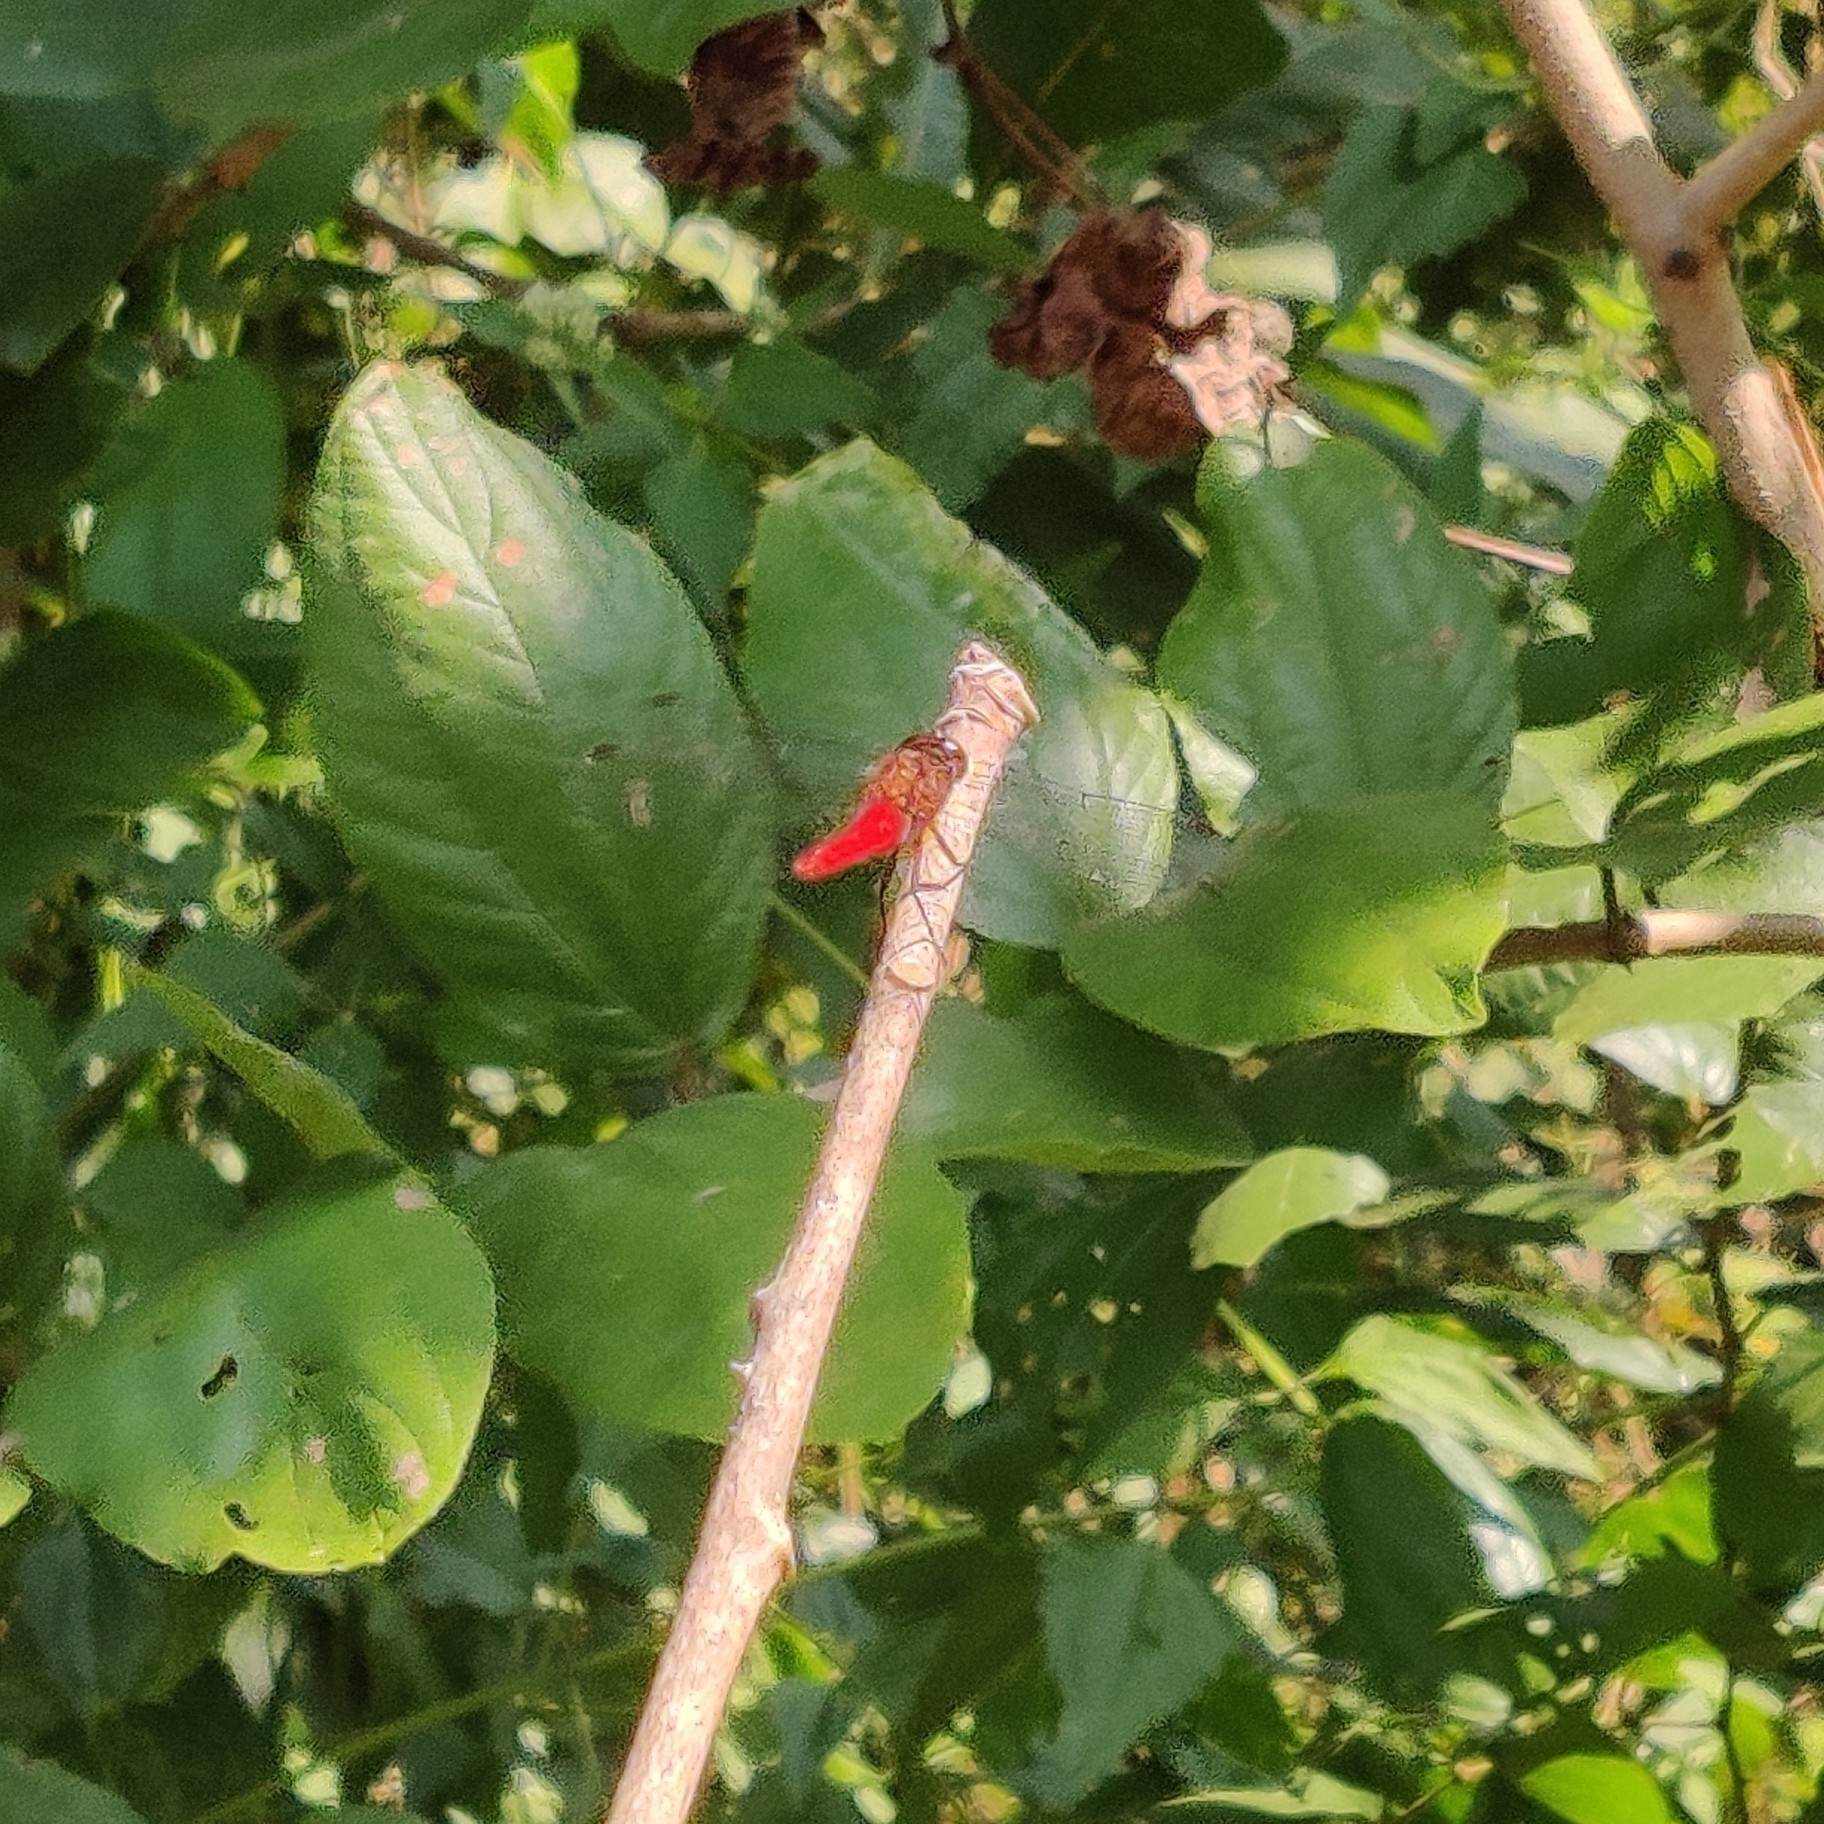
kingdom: Animalia
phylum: Arthropoda
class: Insecta
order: Odonata
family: Libellulidae
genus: Orthetrum
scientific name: Orthetrum chrysis
